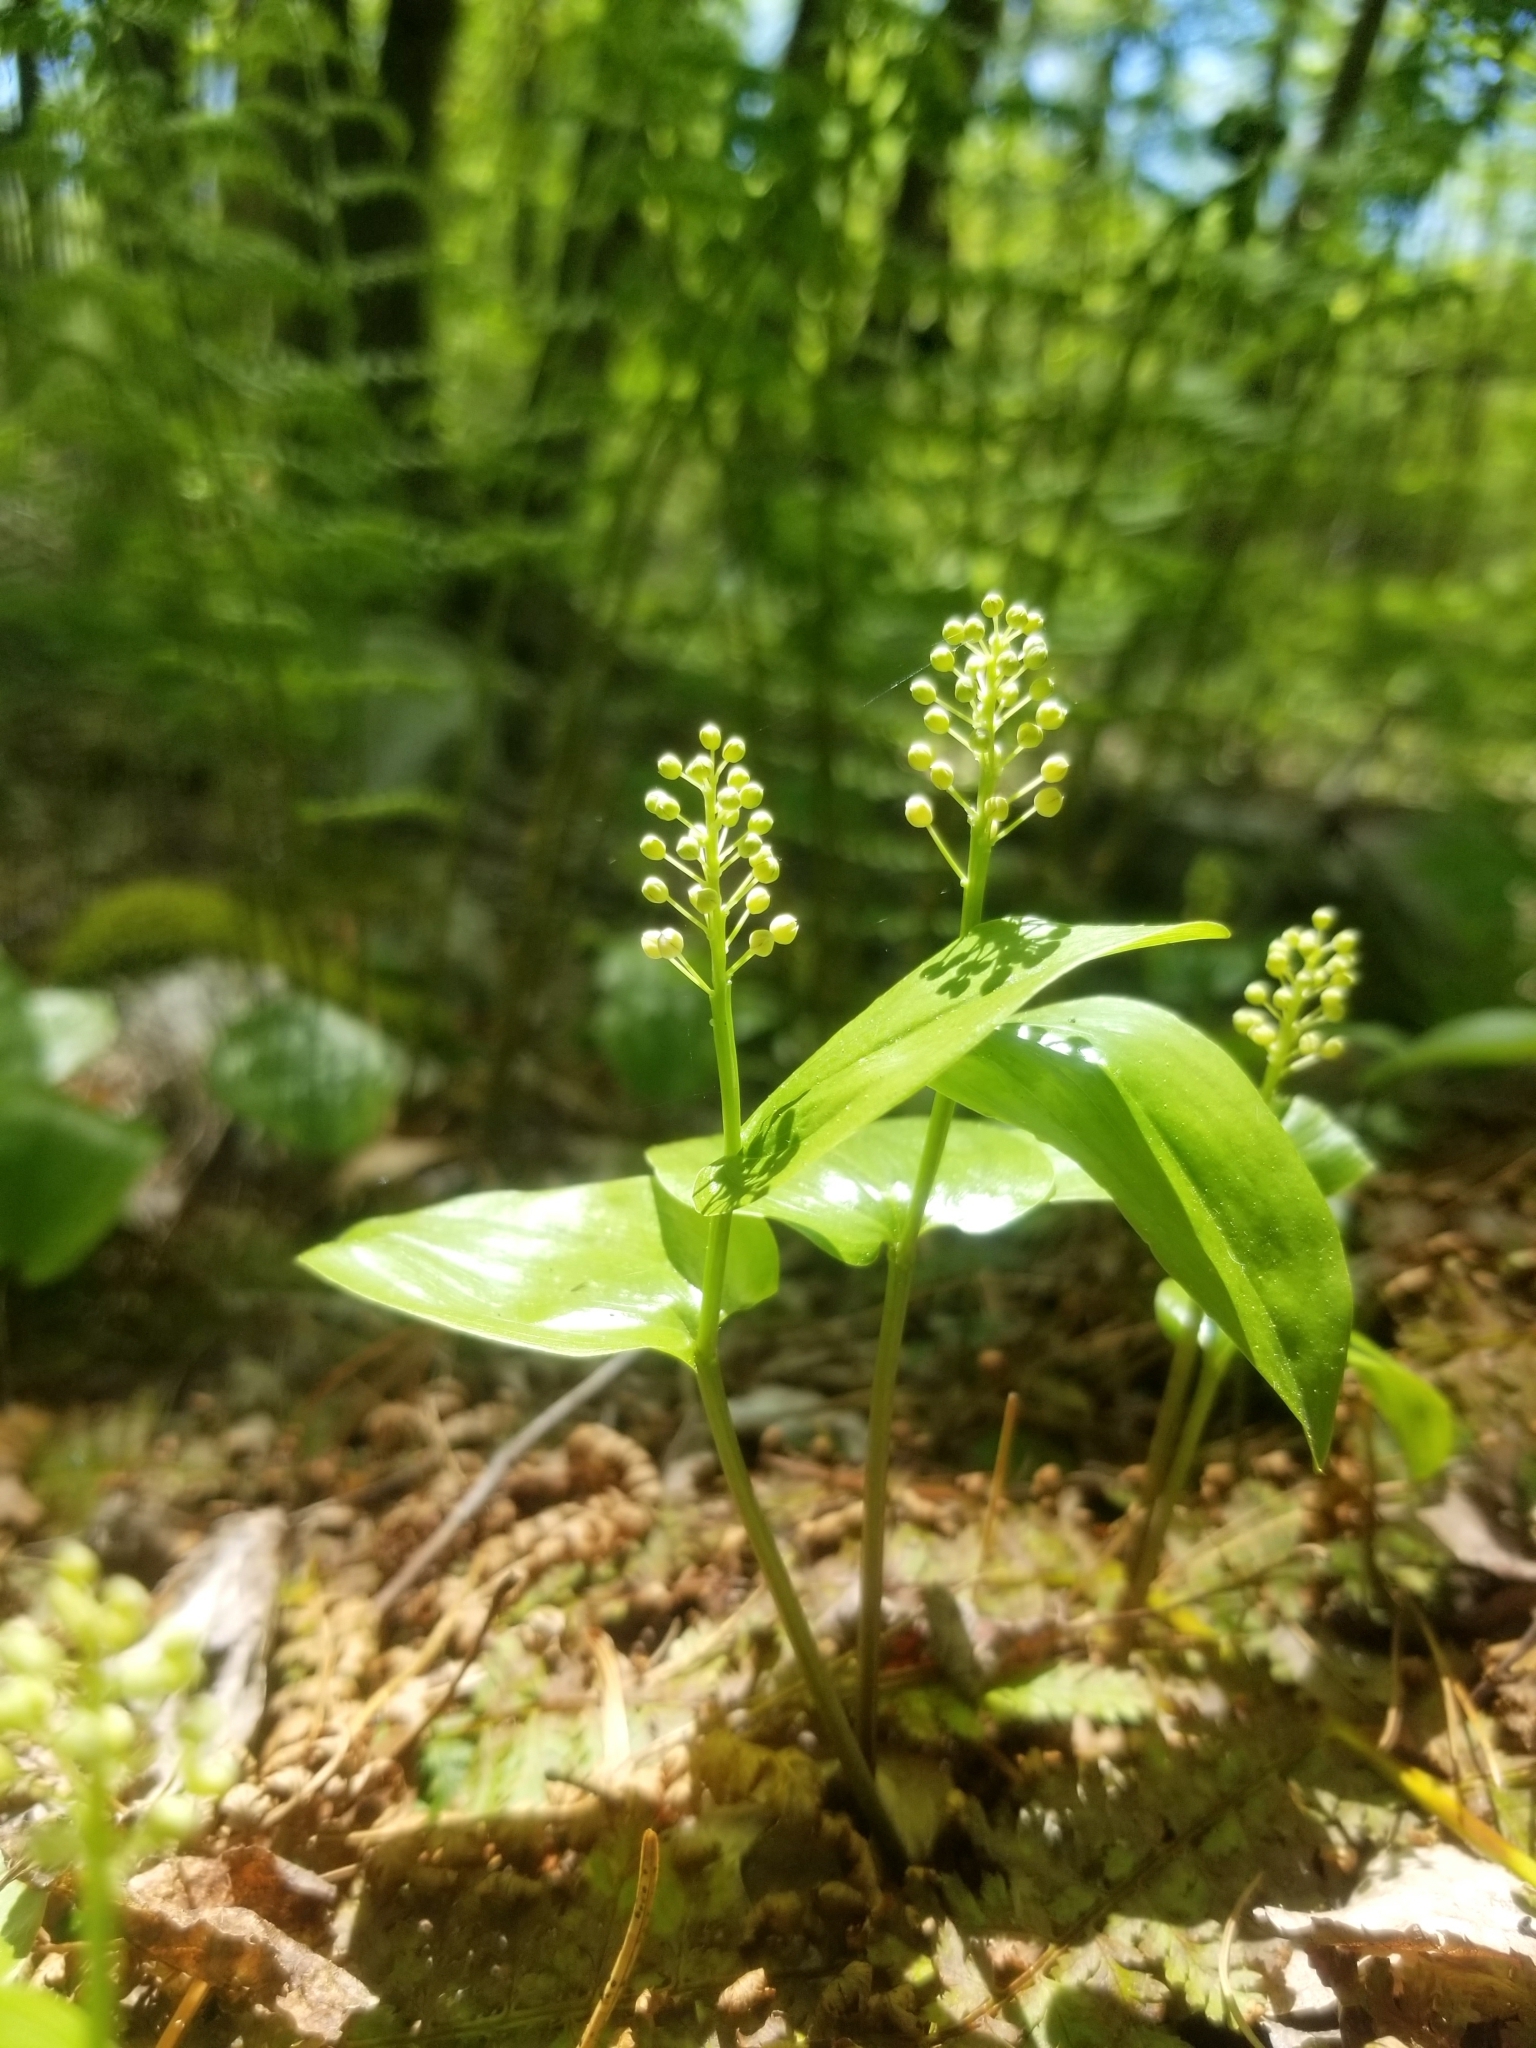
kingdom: Plantae
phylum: Tracheophyta
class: Liliopsida
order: Asparagales
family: Asparagaceae
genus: Maianthemum
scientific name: Maianthemum canadense
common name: False lily-of-the-valley
